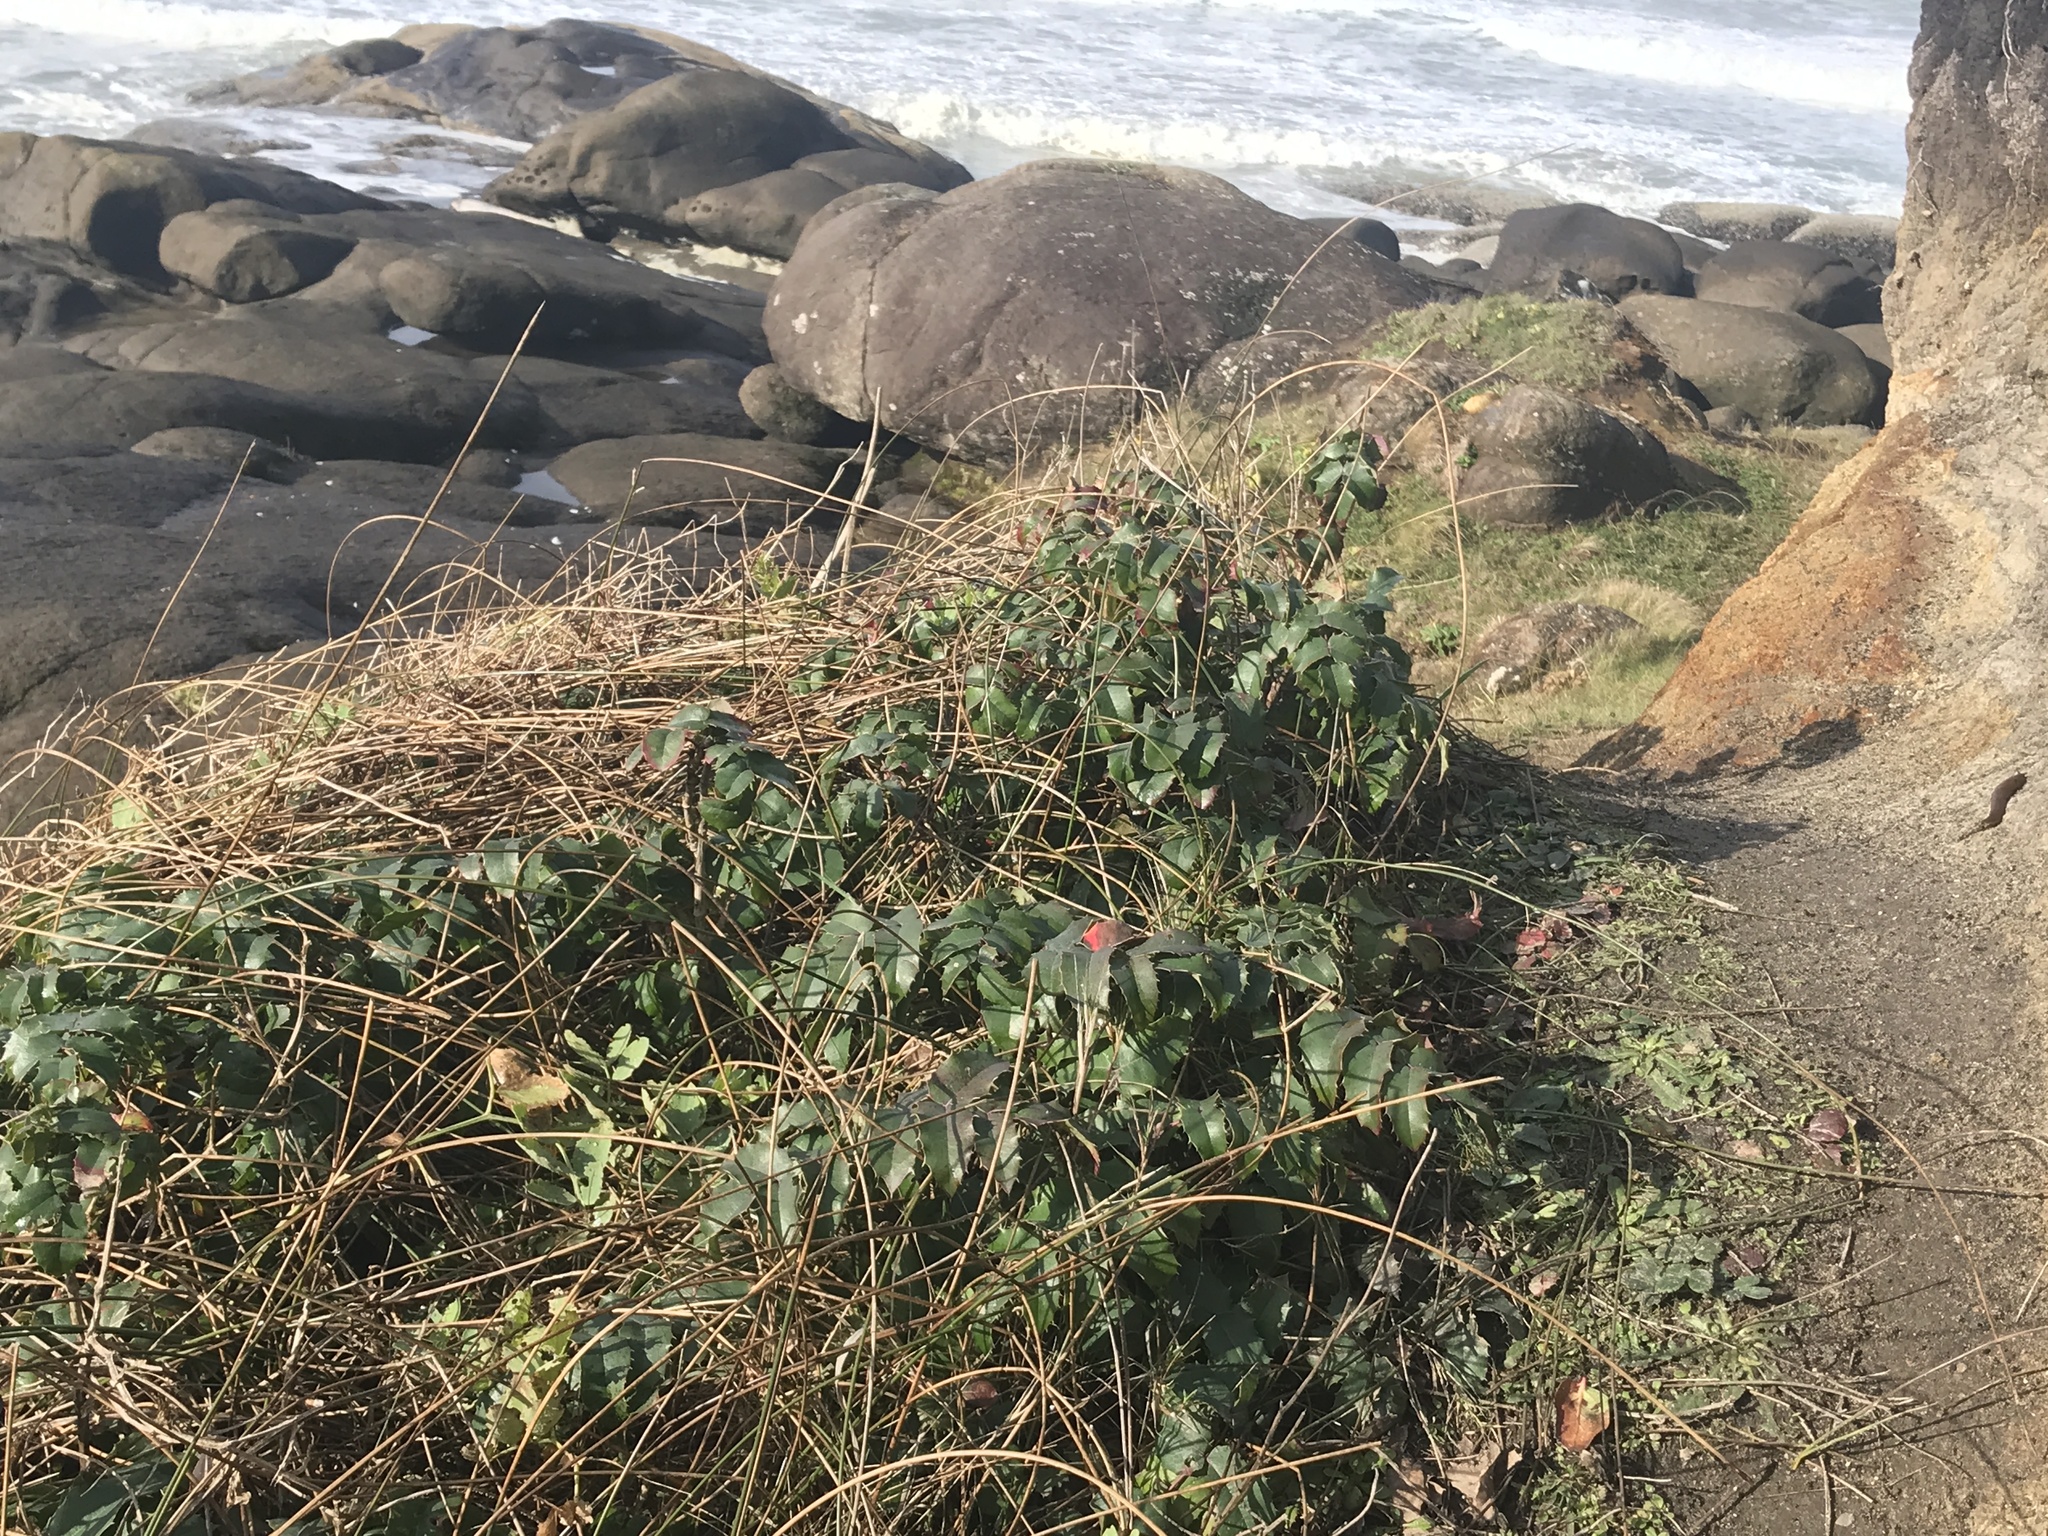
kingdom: Plantae
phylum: Tracheophyta
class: Magnoliopsida
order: Ranunculales
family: Berberidaceae
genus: Mahonia
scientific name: Mahonia aquifolium
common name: Oregon-grape
